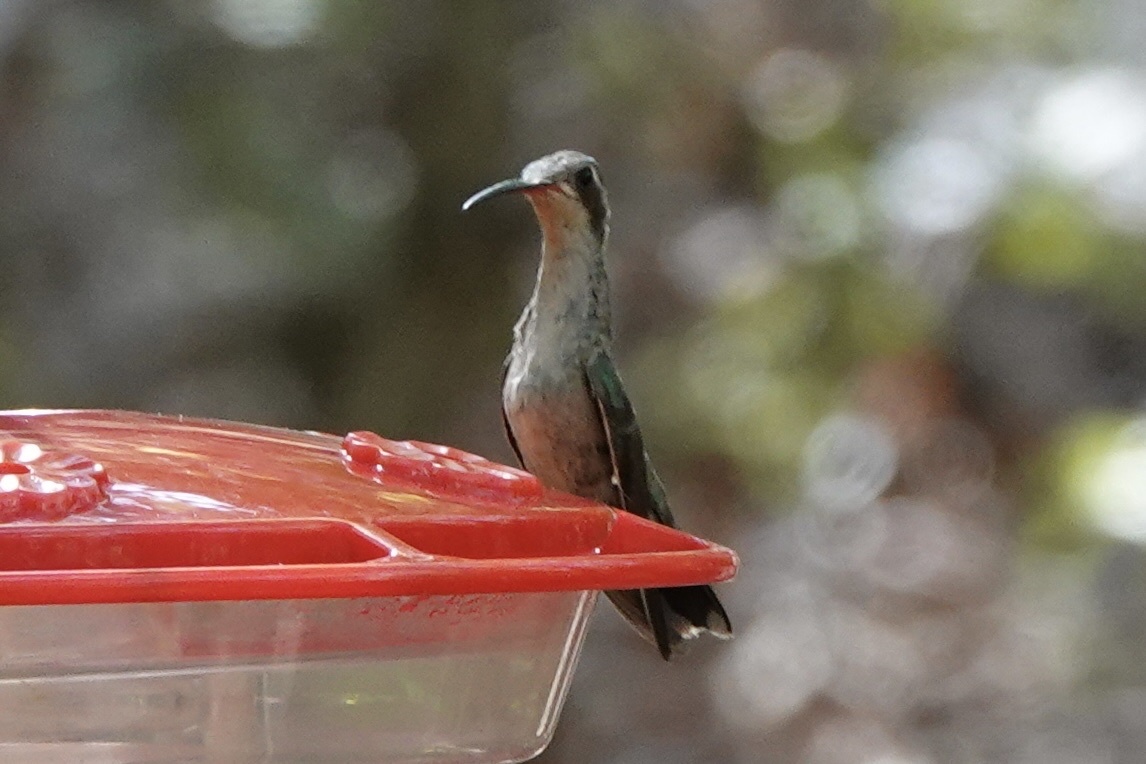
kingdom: Animalia
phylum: Chordata
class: Aves
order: Apodiformes
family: Trochilidae
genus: Cynanthus
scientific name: Cynanthus latirostris
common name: Broad-billed hummingbird
